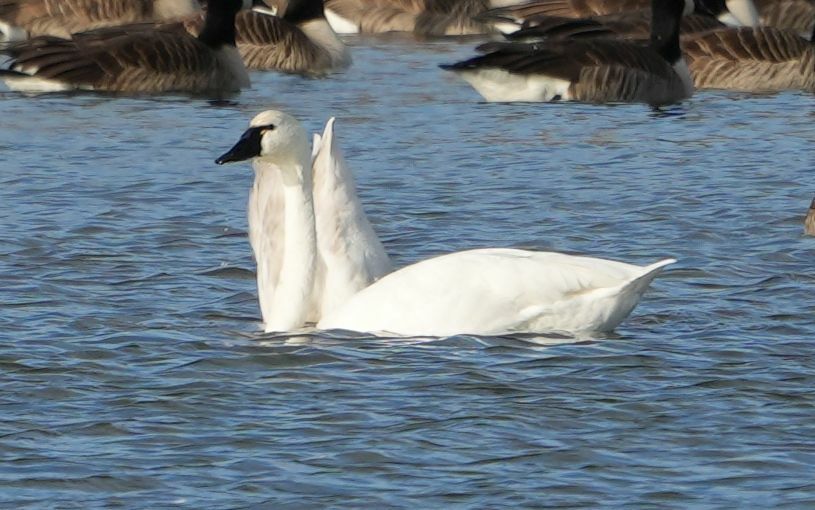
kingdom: Animalia
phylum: Chordata
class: Aves
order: Anseriformes
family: Anatidae
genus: Cygnus
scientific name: Cygnus columbianus
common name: Tundra swan
